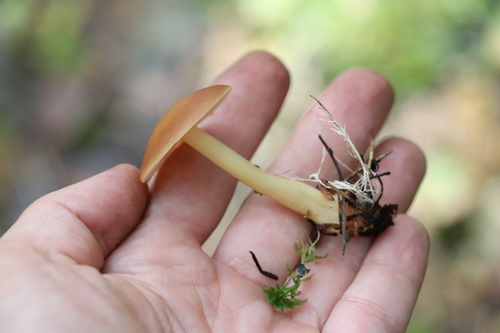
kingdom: Fungi
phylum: Basidiomycota
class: Agaricomycetes
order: Agaricales
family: Omphalotaceae
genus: Gymnopus
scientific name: Gymnopus aquosus
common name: Watery toughshank
